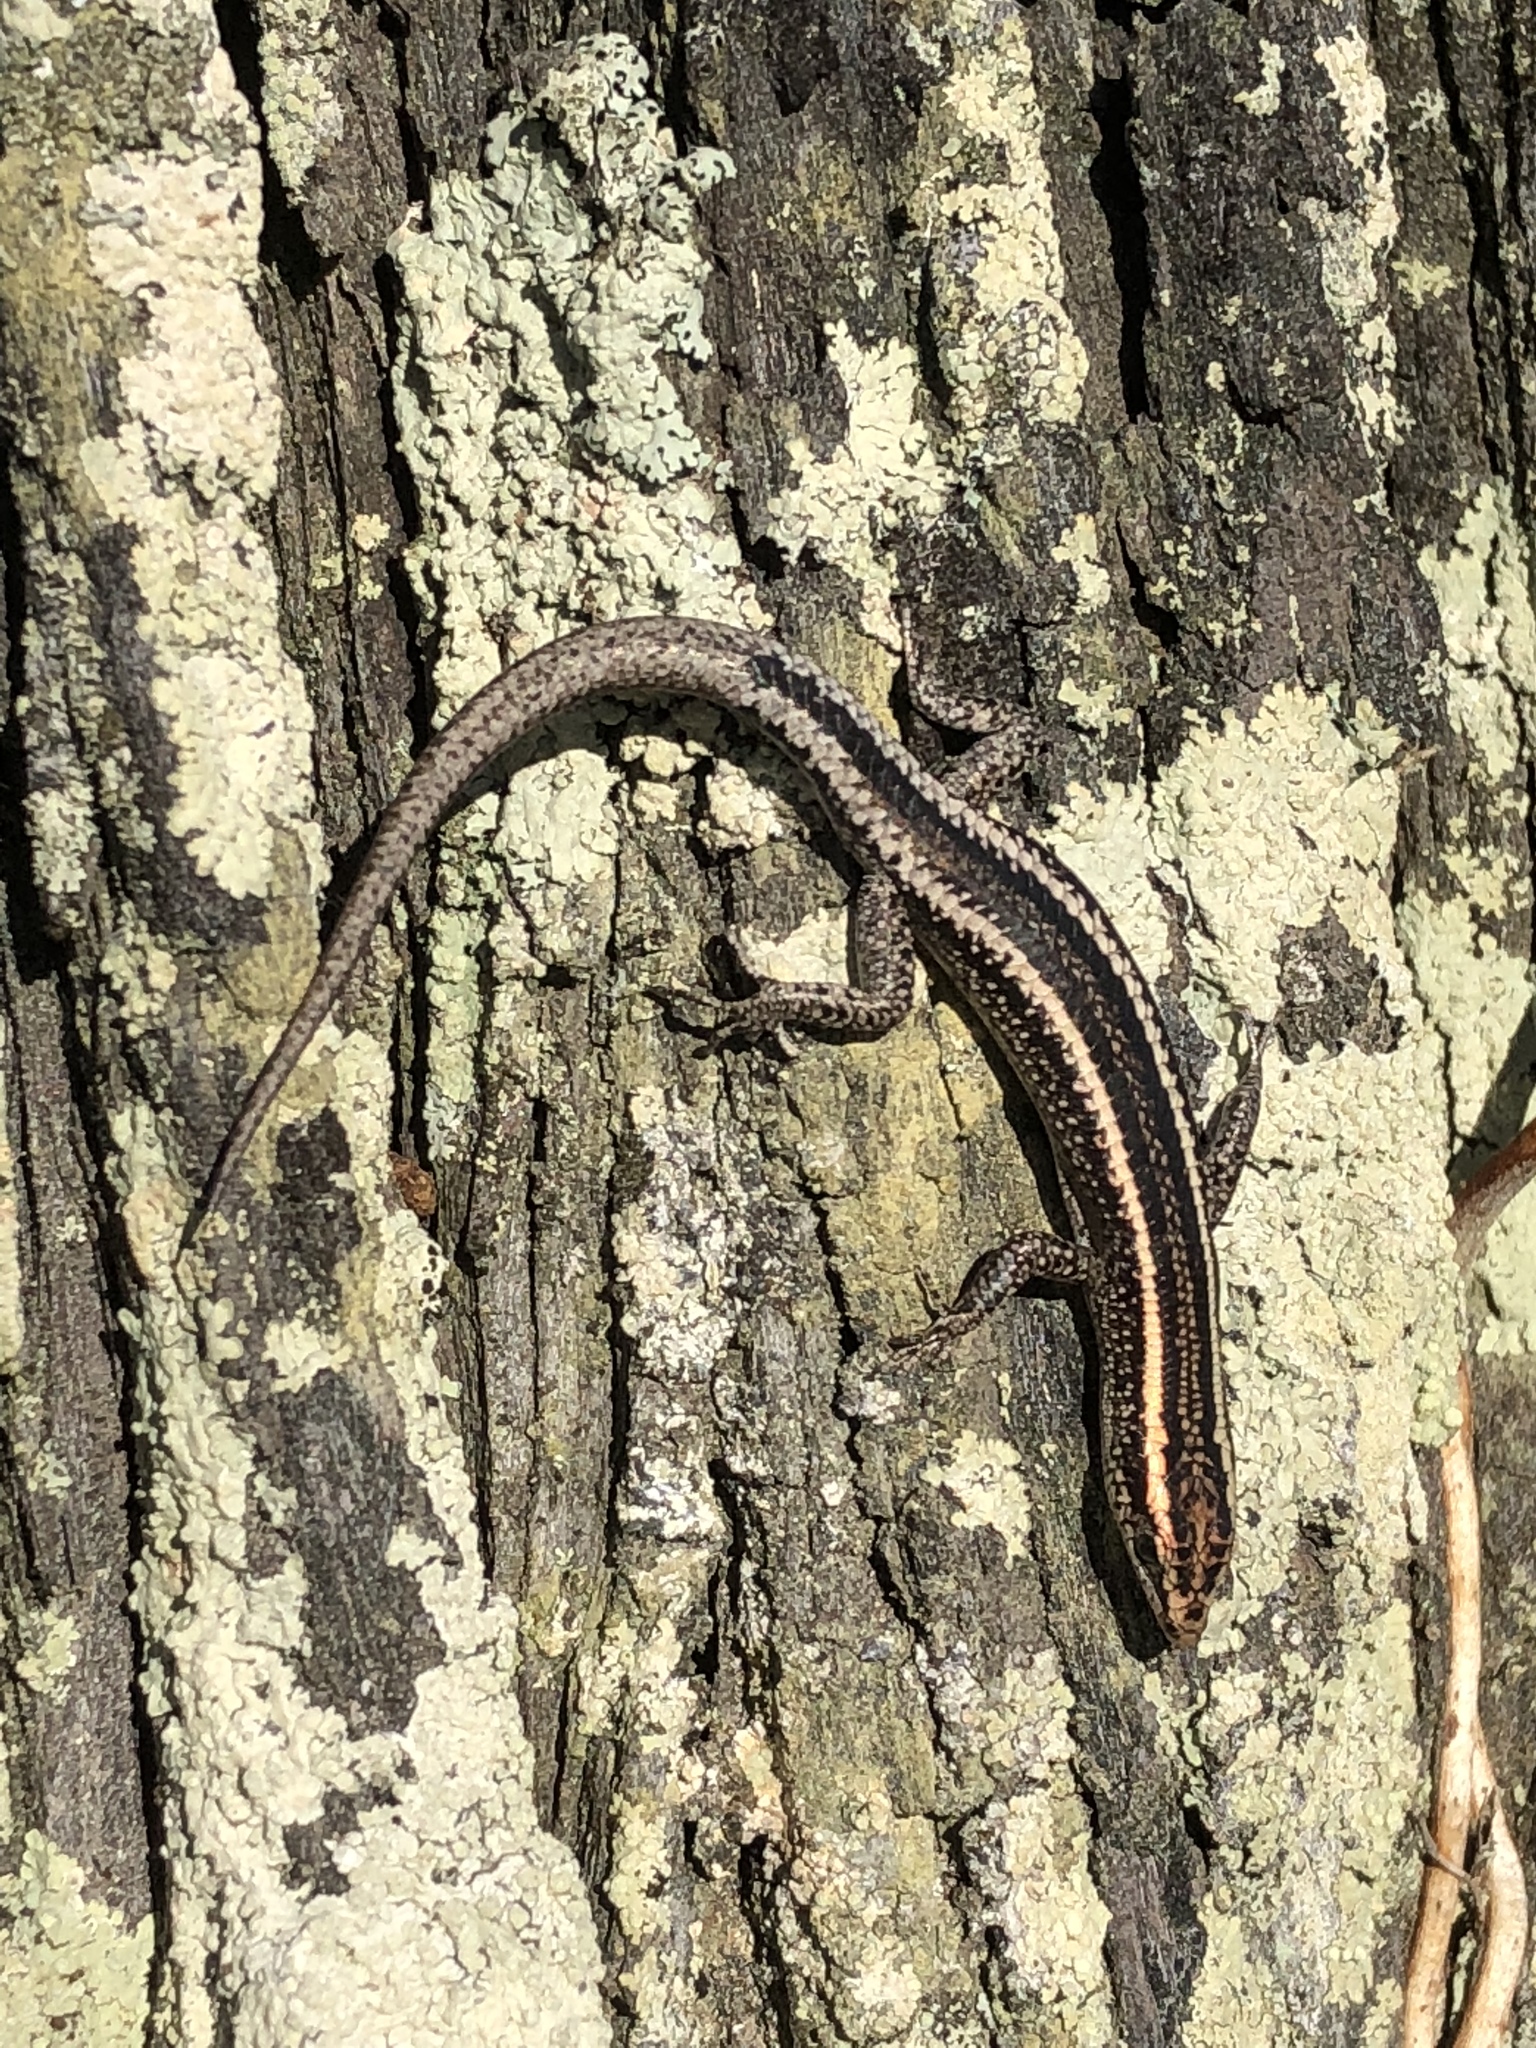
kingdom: Animalia
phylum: Chordata
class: Squamata
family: Scincidae
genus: Cryptoblepharus
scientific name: Cryptoblepharus pulcher
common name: Elegant snake-eyed skink
